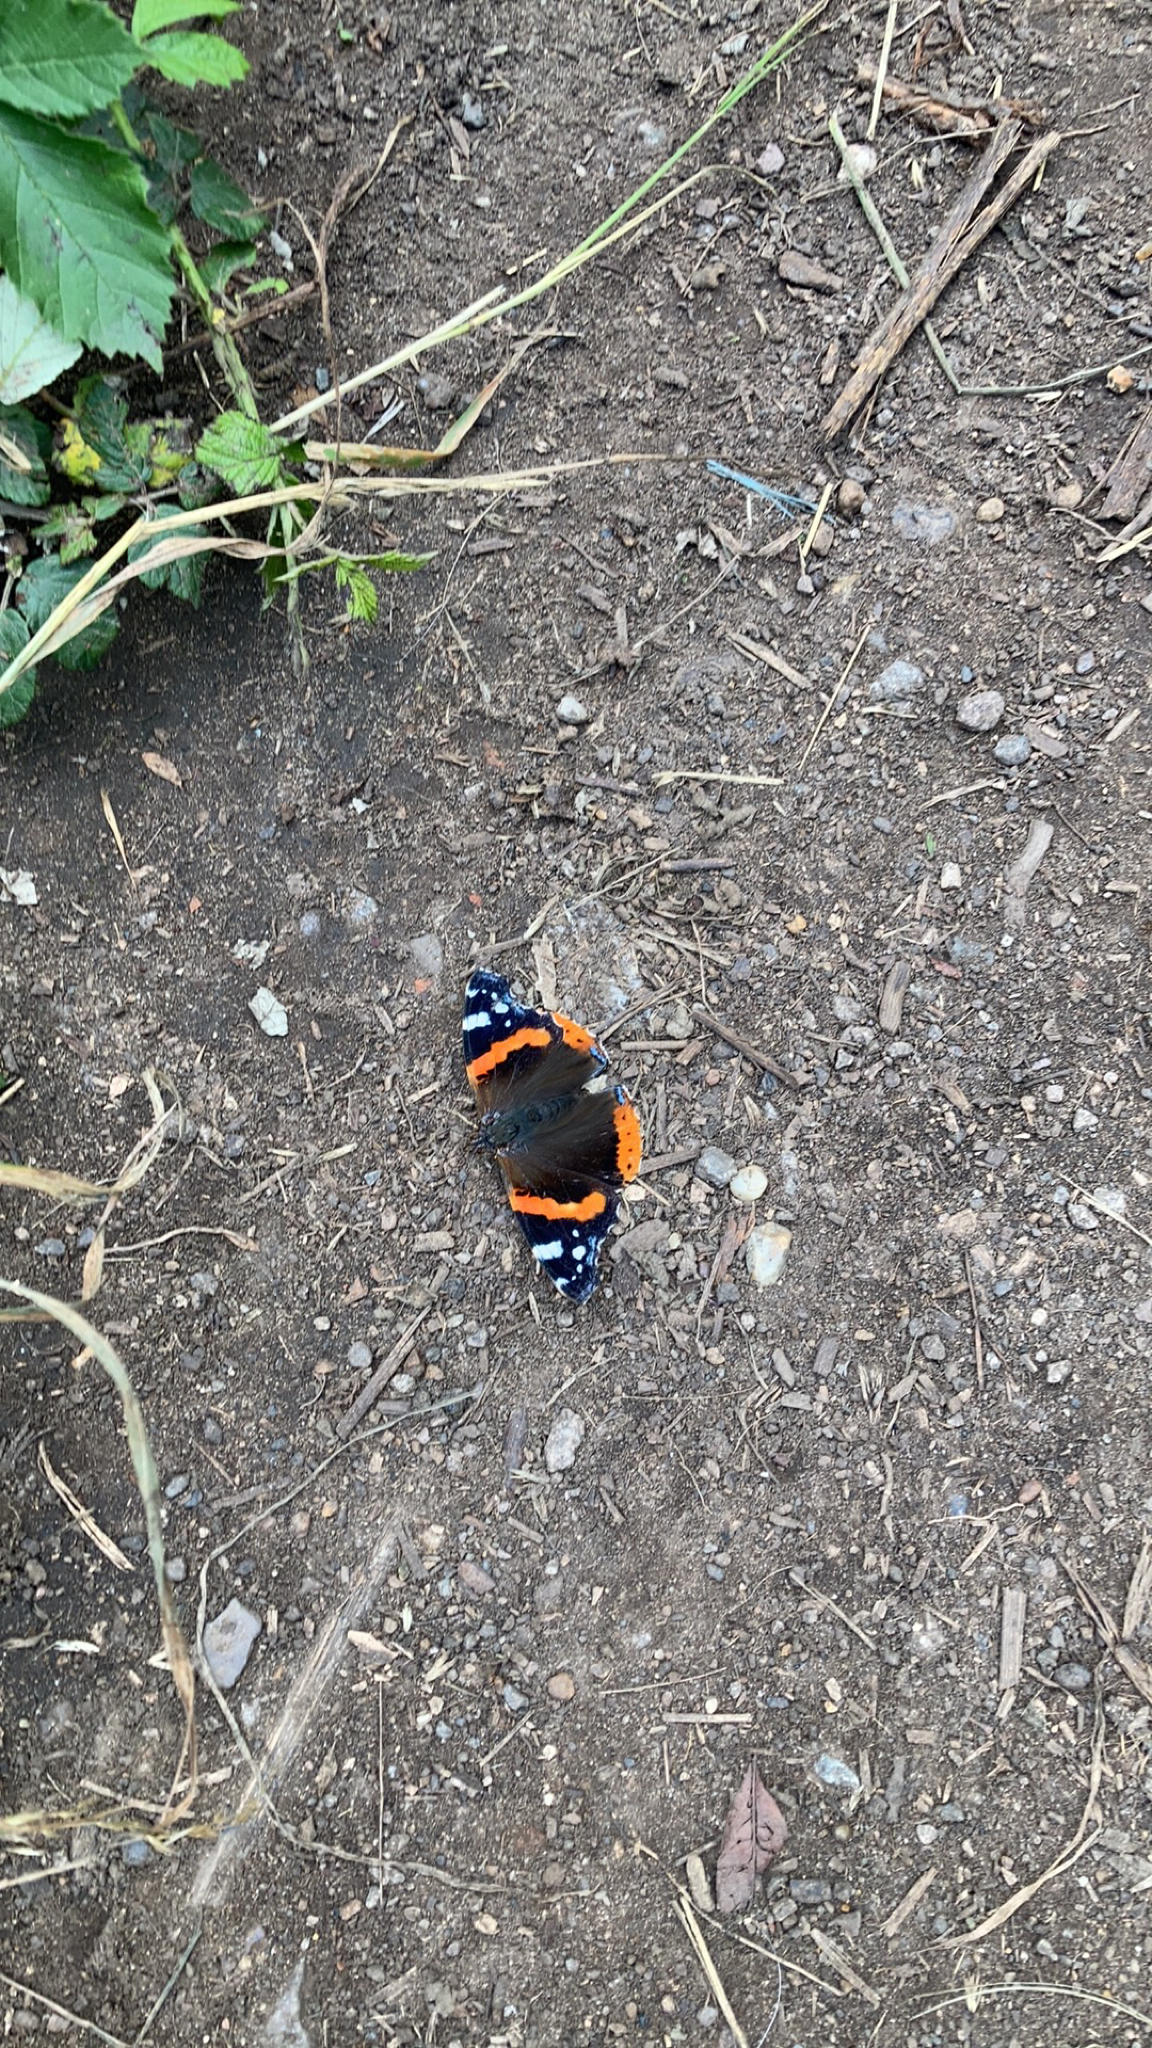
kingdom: Animalia
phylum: Arthropoda
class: Insecta
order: Lepidoptera
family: Nymphalidae
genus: Vanessa
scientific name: Vanessa atalanta
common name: Red admiral
